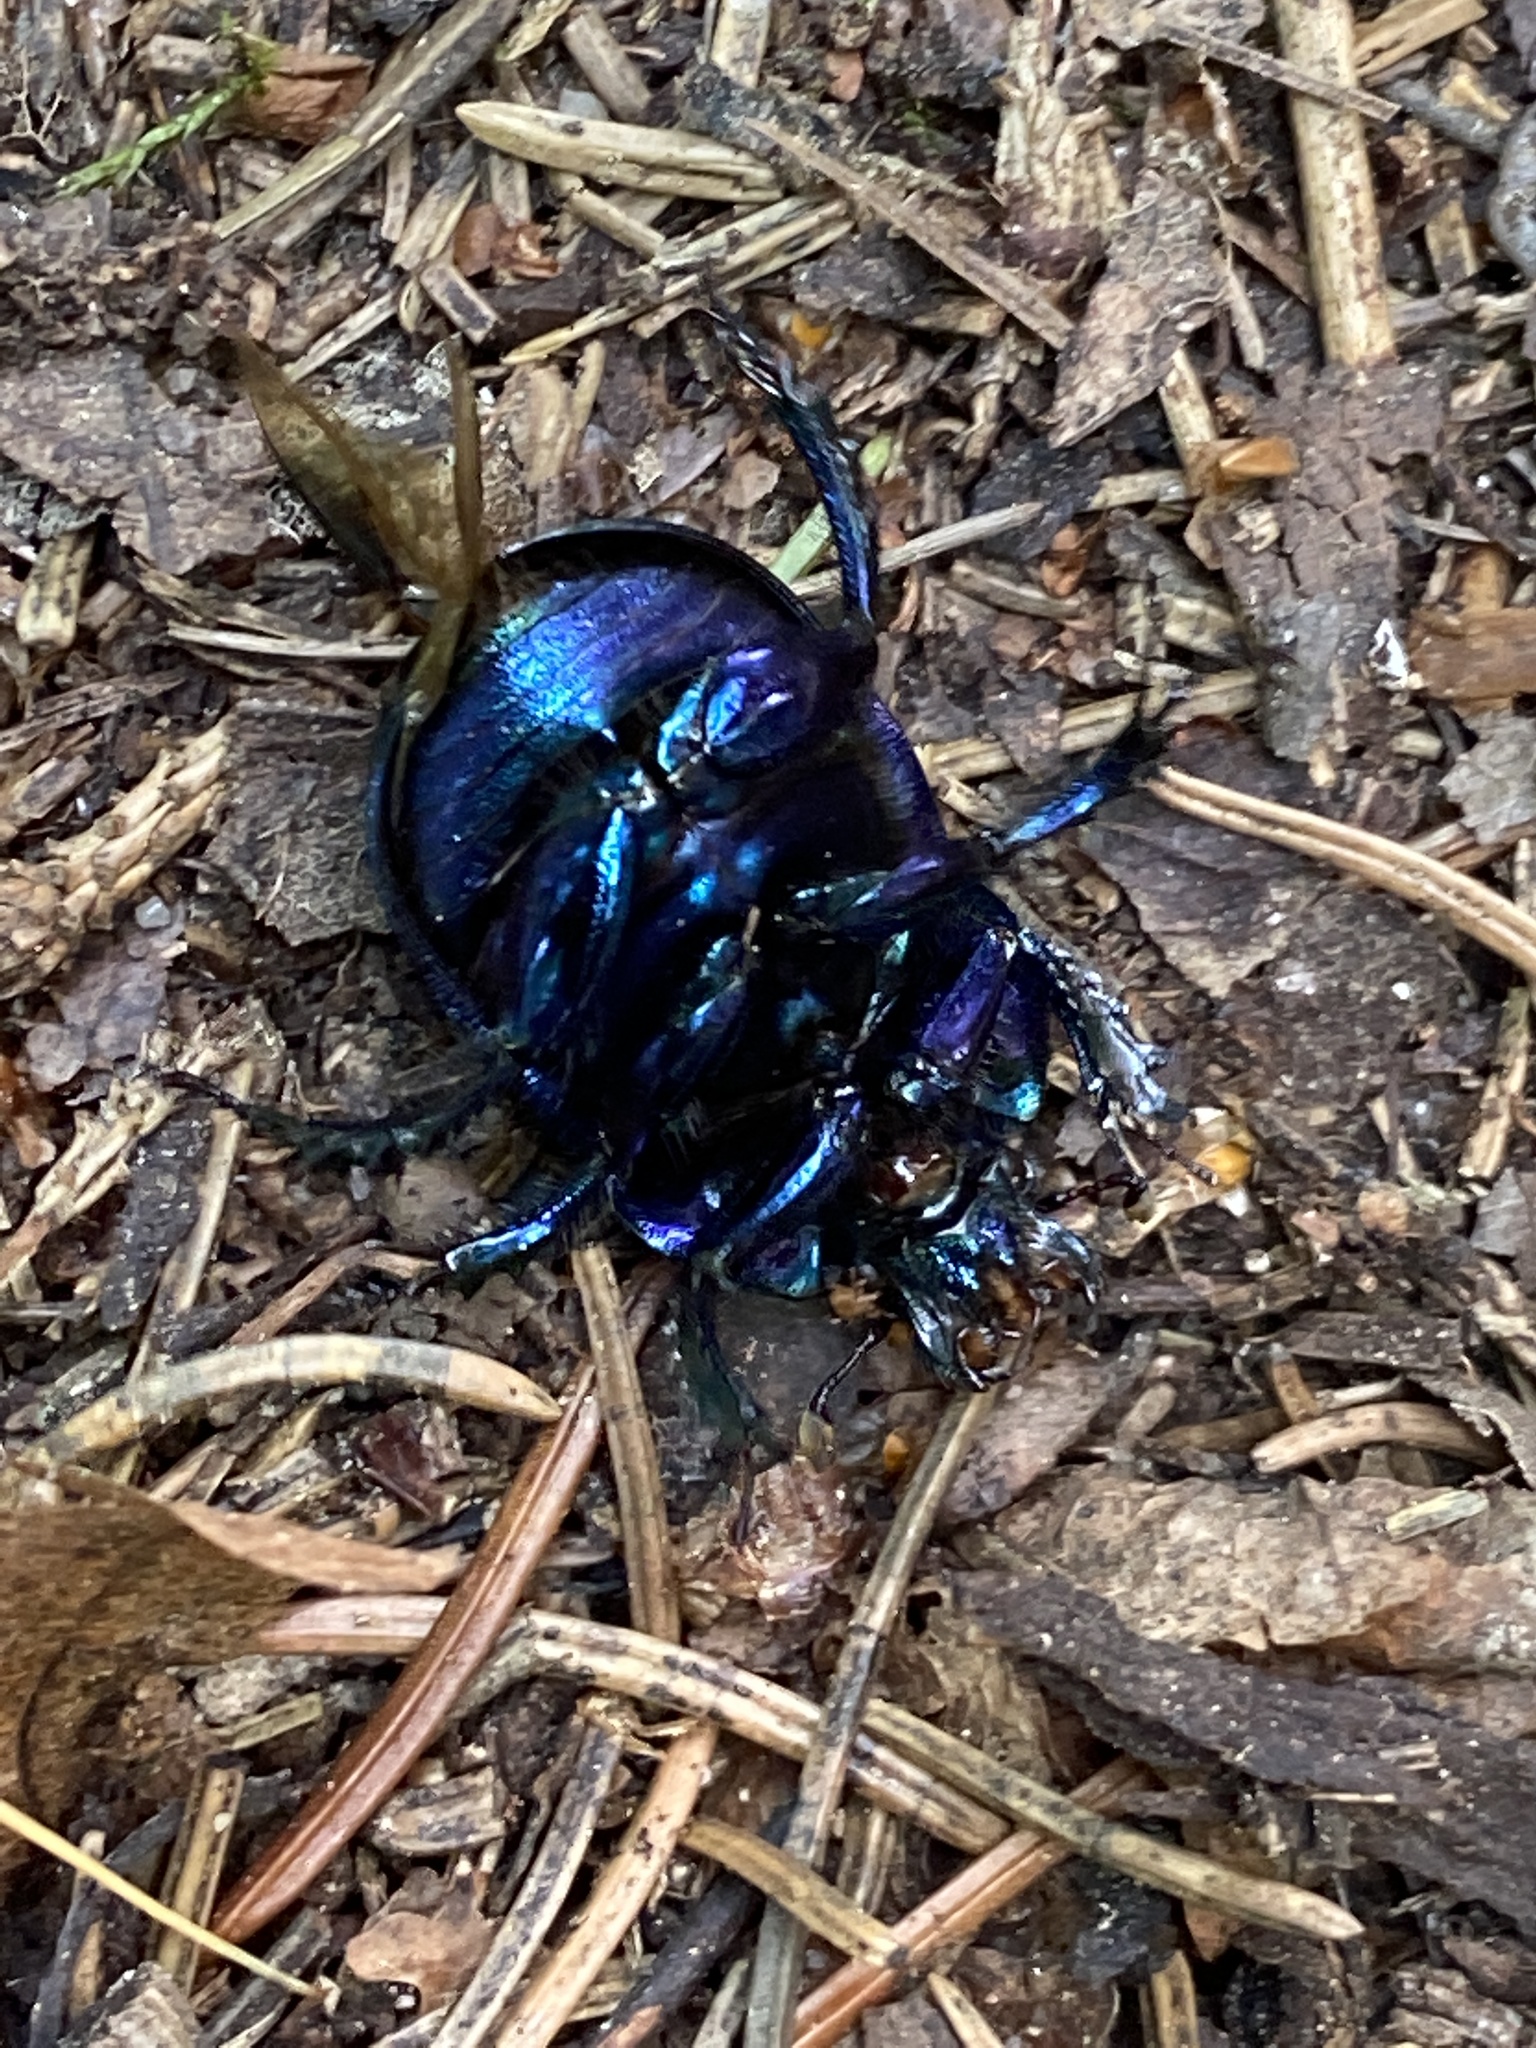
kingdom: Animalia
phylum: Arthropoda
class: Insecta
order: Coleoptera
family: Geotrupidae
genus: Anoplotrupes
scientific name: Anoplotrupes stercorosus
